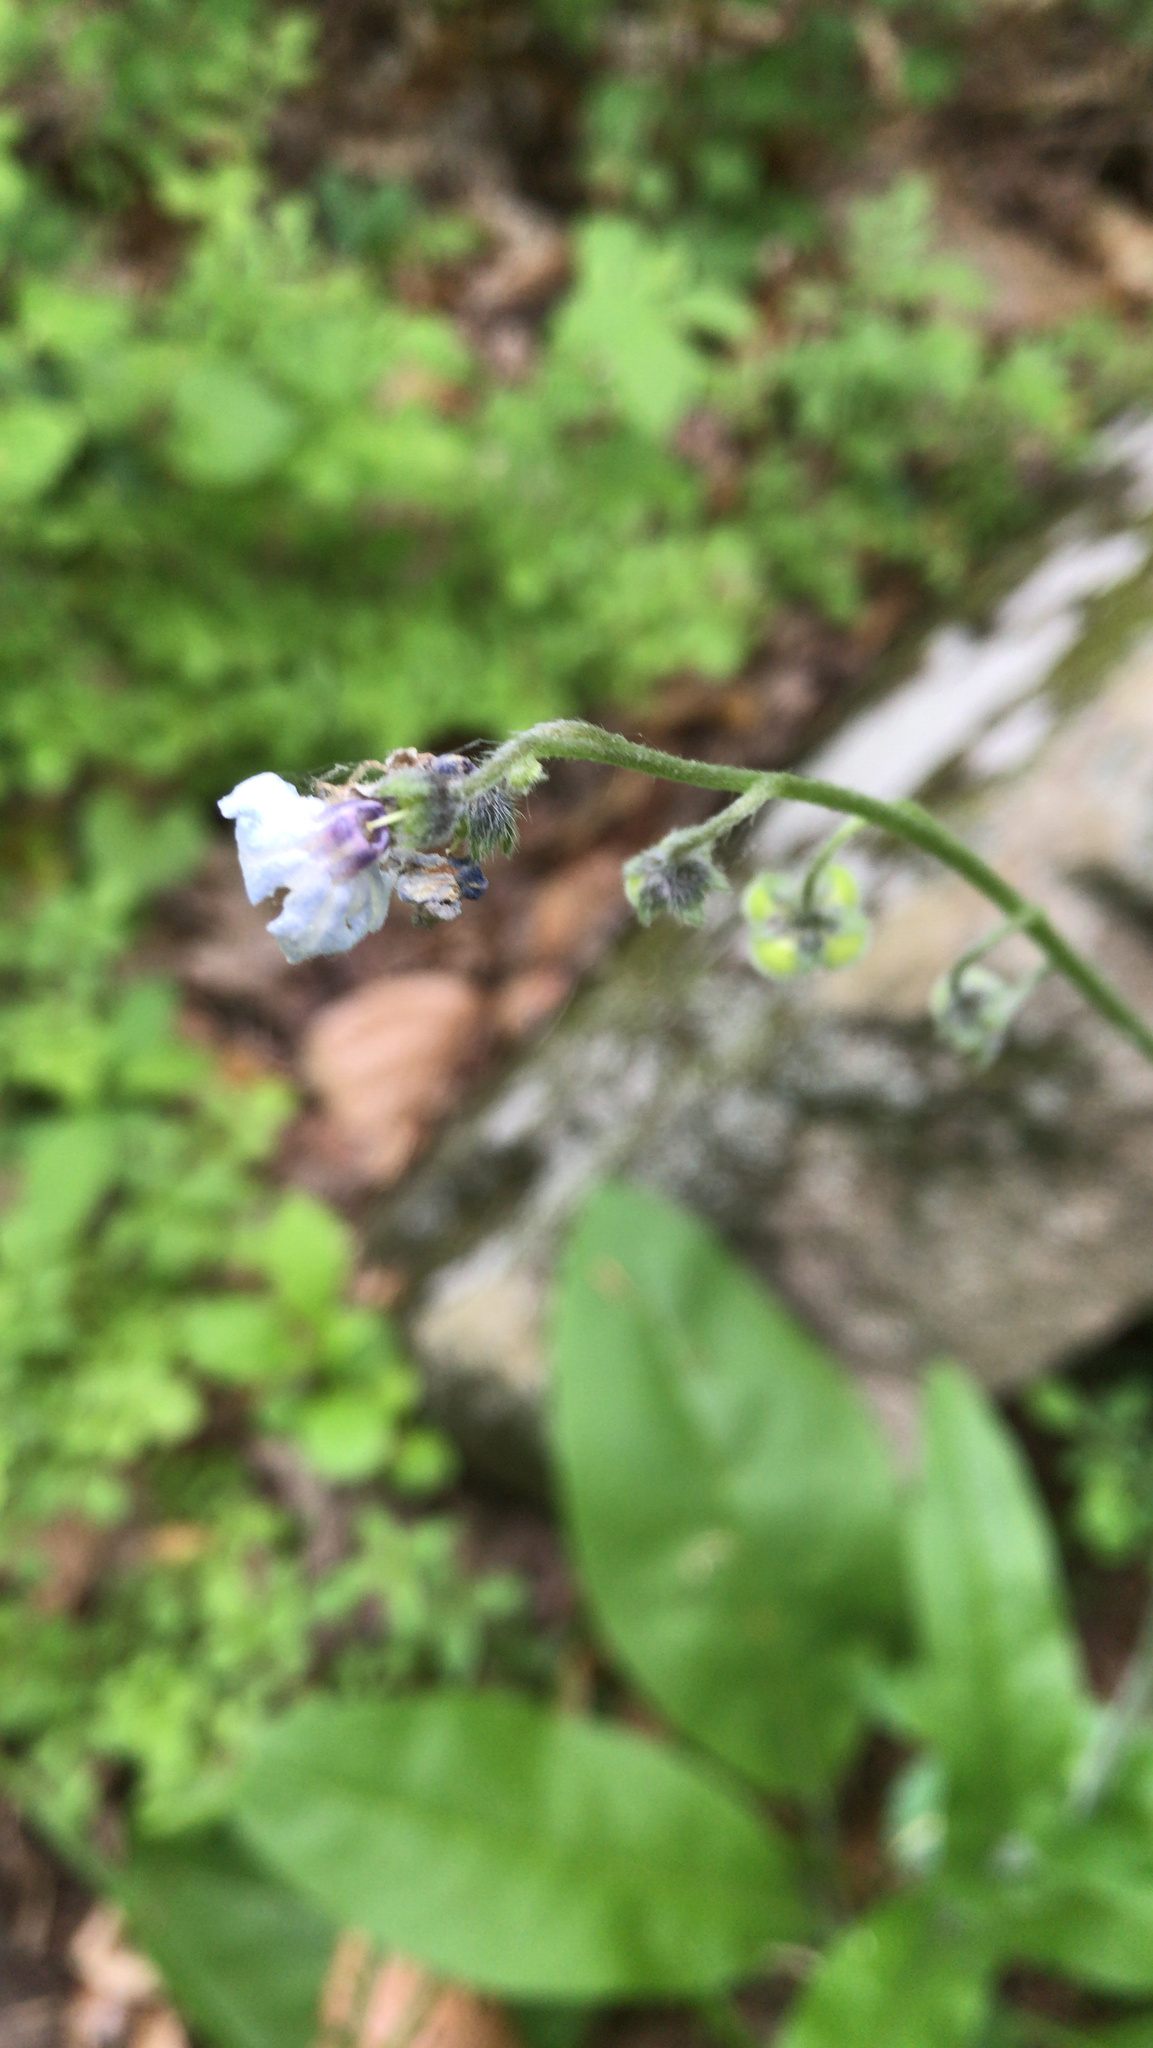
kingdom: Plantae
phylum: Tracheophyta
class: Magnoliopsida
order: Boraginales
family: Boraginaceae
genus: Andersonglossum
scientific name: Andersonglossum virginianum
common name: Wild comfrey
